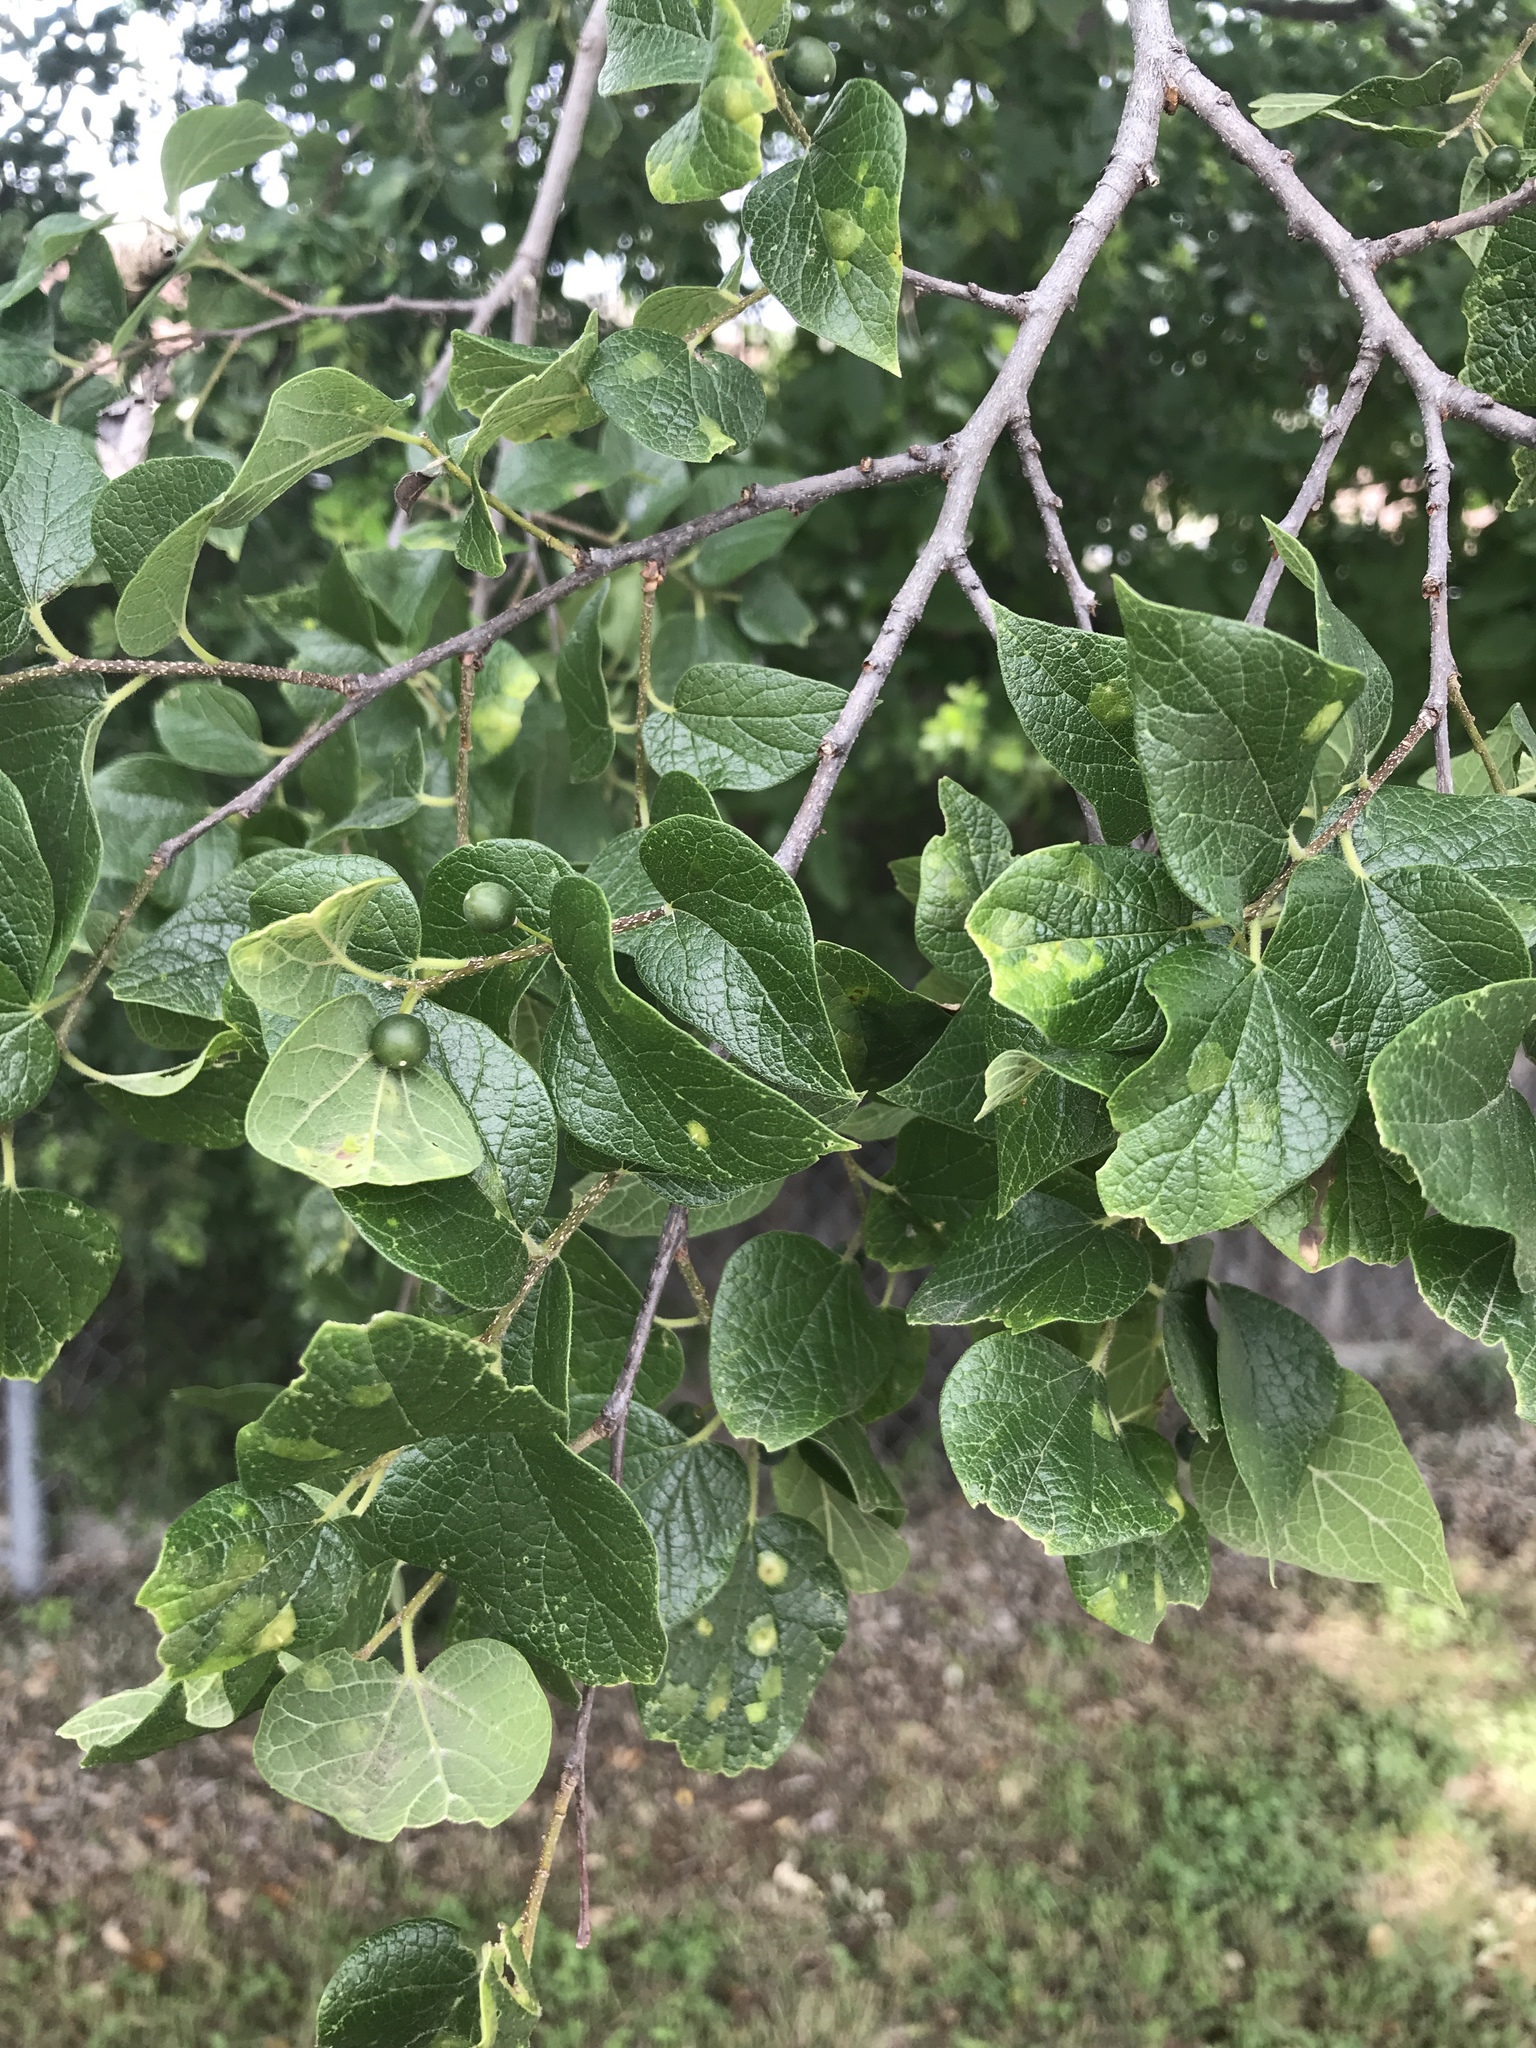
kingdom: Plantae
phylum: Tracheophyta
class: Magnoliopsida
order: Rosales
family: Cannabaceae
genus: Celtis
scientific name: Celtis reticulata
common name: Netleaf hackberry
